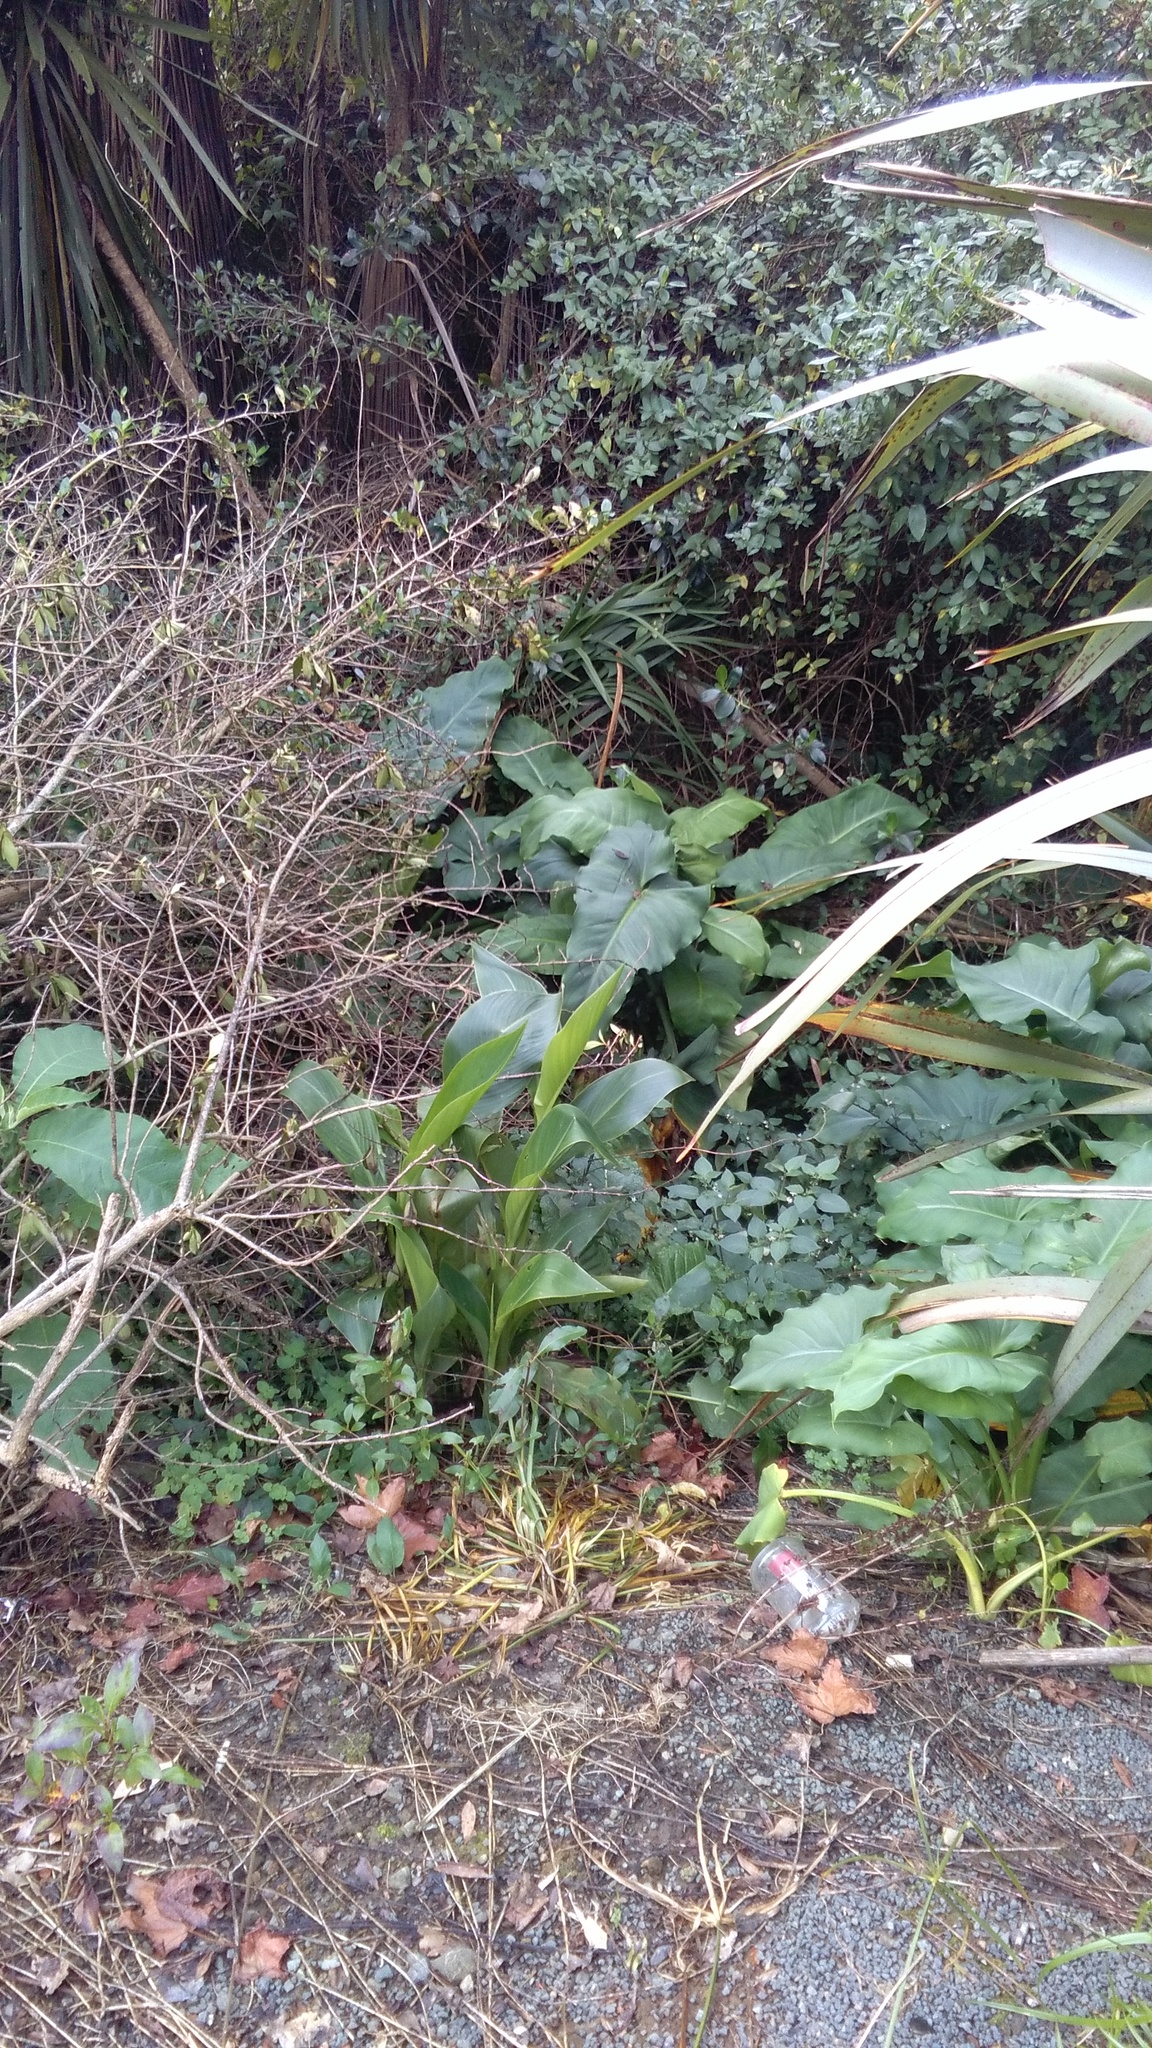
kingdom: Plantae
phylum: Tracheophyta
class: Magnoliopsida
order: Solanales
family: Solanaceae
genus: Solanum
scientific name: Solanum mauritianum
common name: Earleaf nightshade
